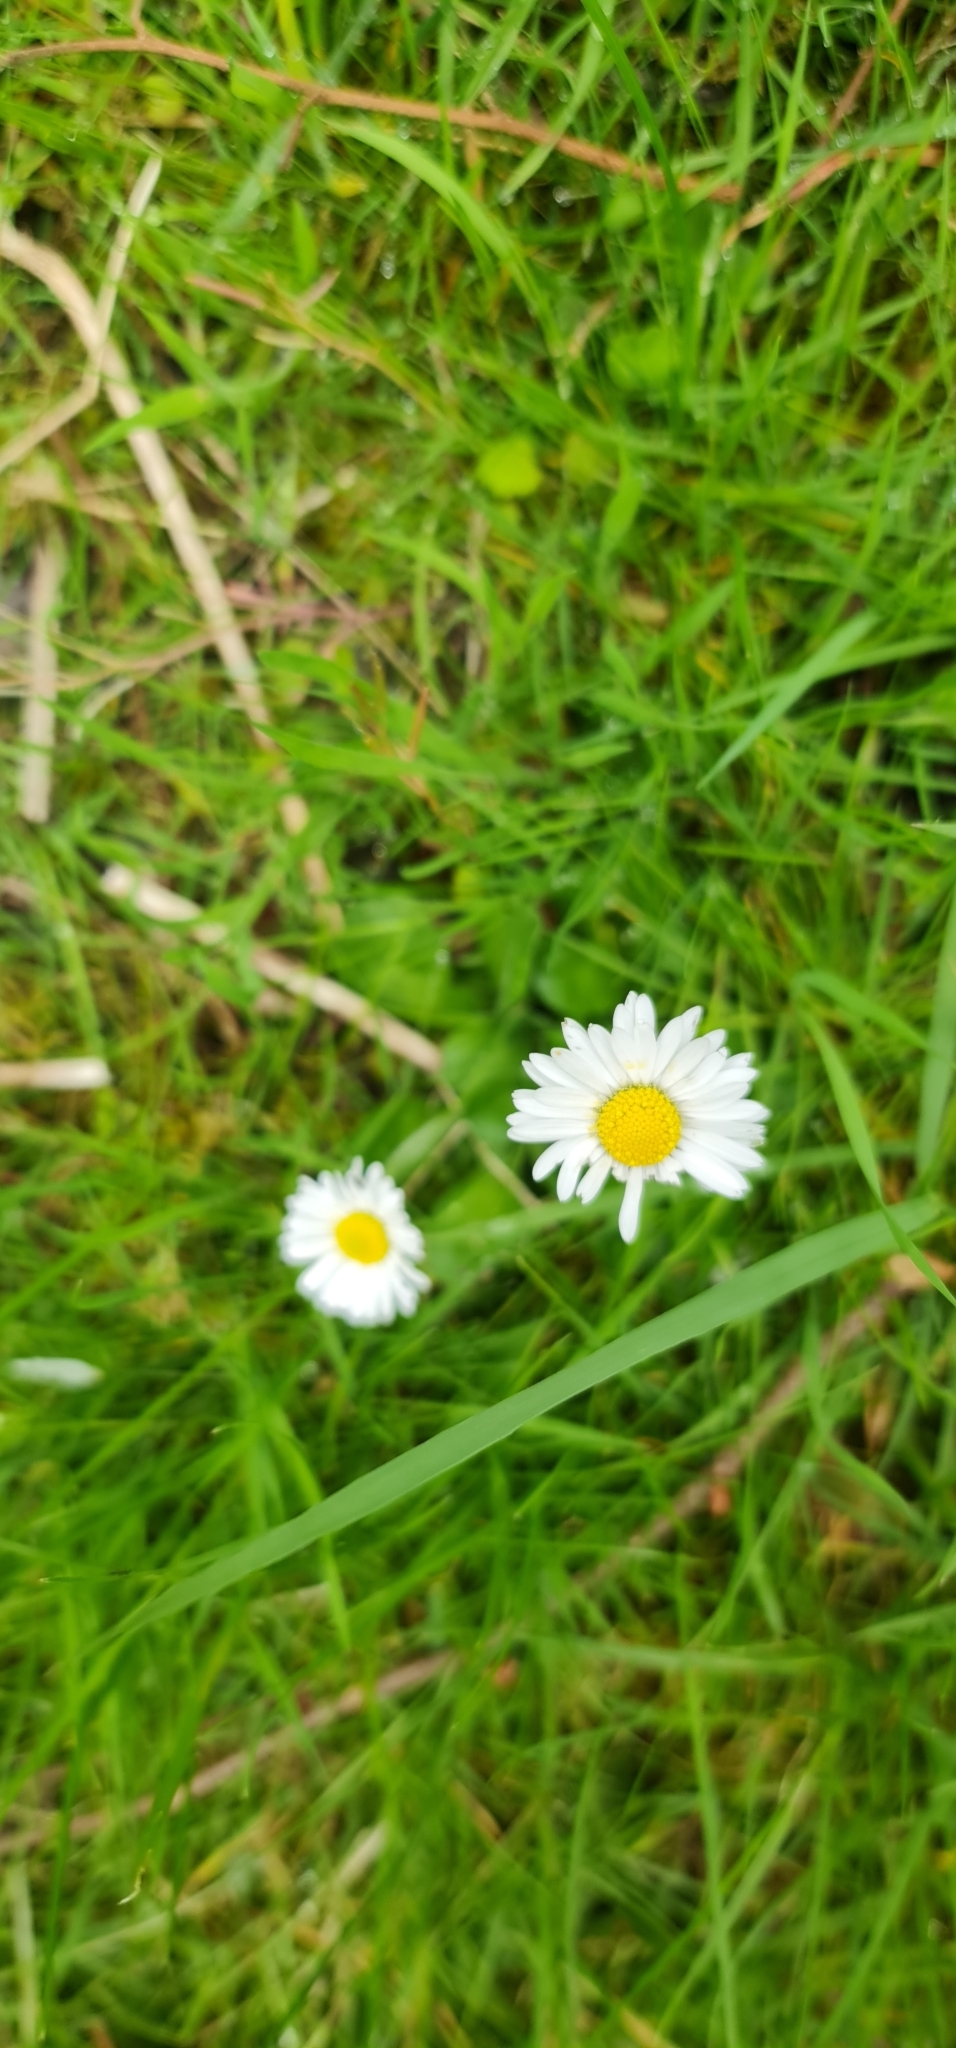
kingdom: Plantae
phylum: Tracheophyta
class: Magnoliopsida
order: Asterales
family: Asteraceae
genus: Bellis
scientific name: Bellis perennis
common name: Lawndaisy
